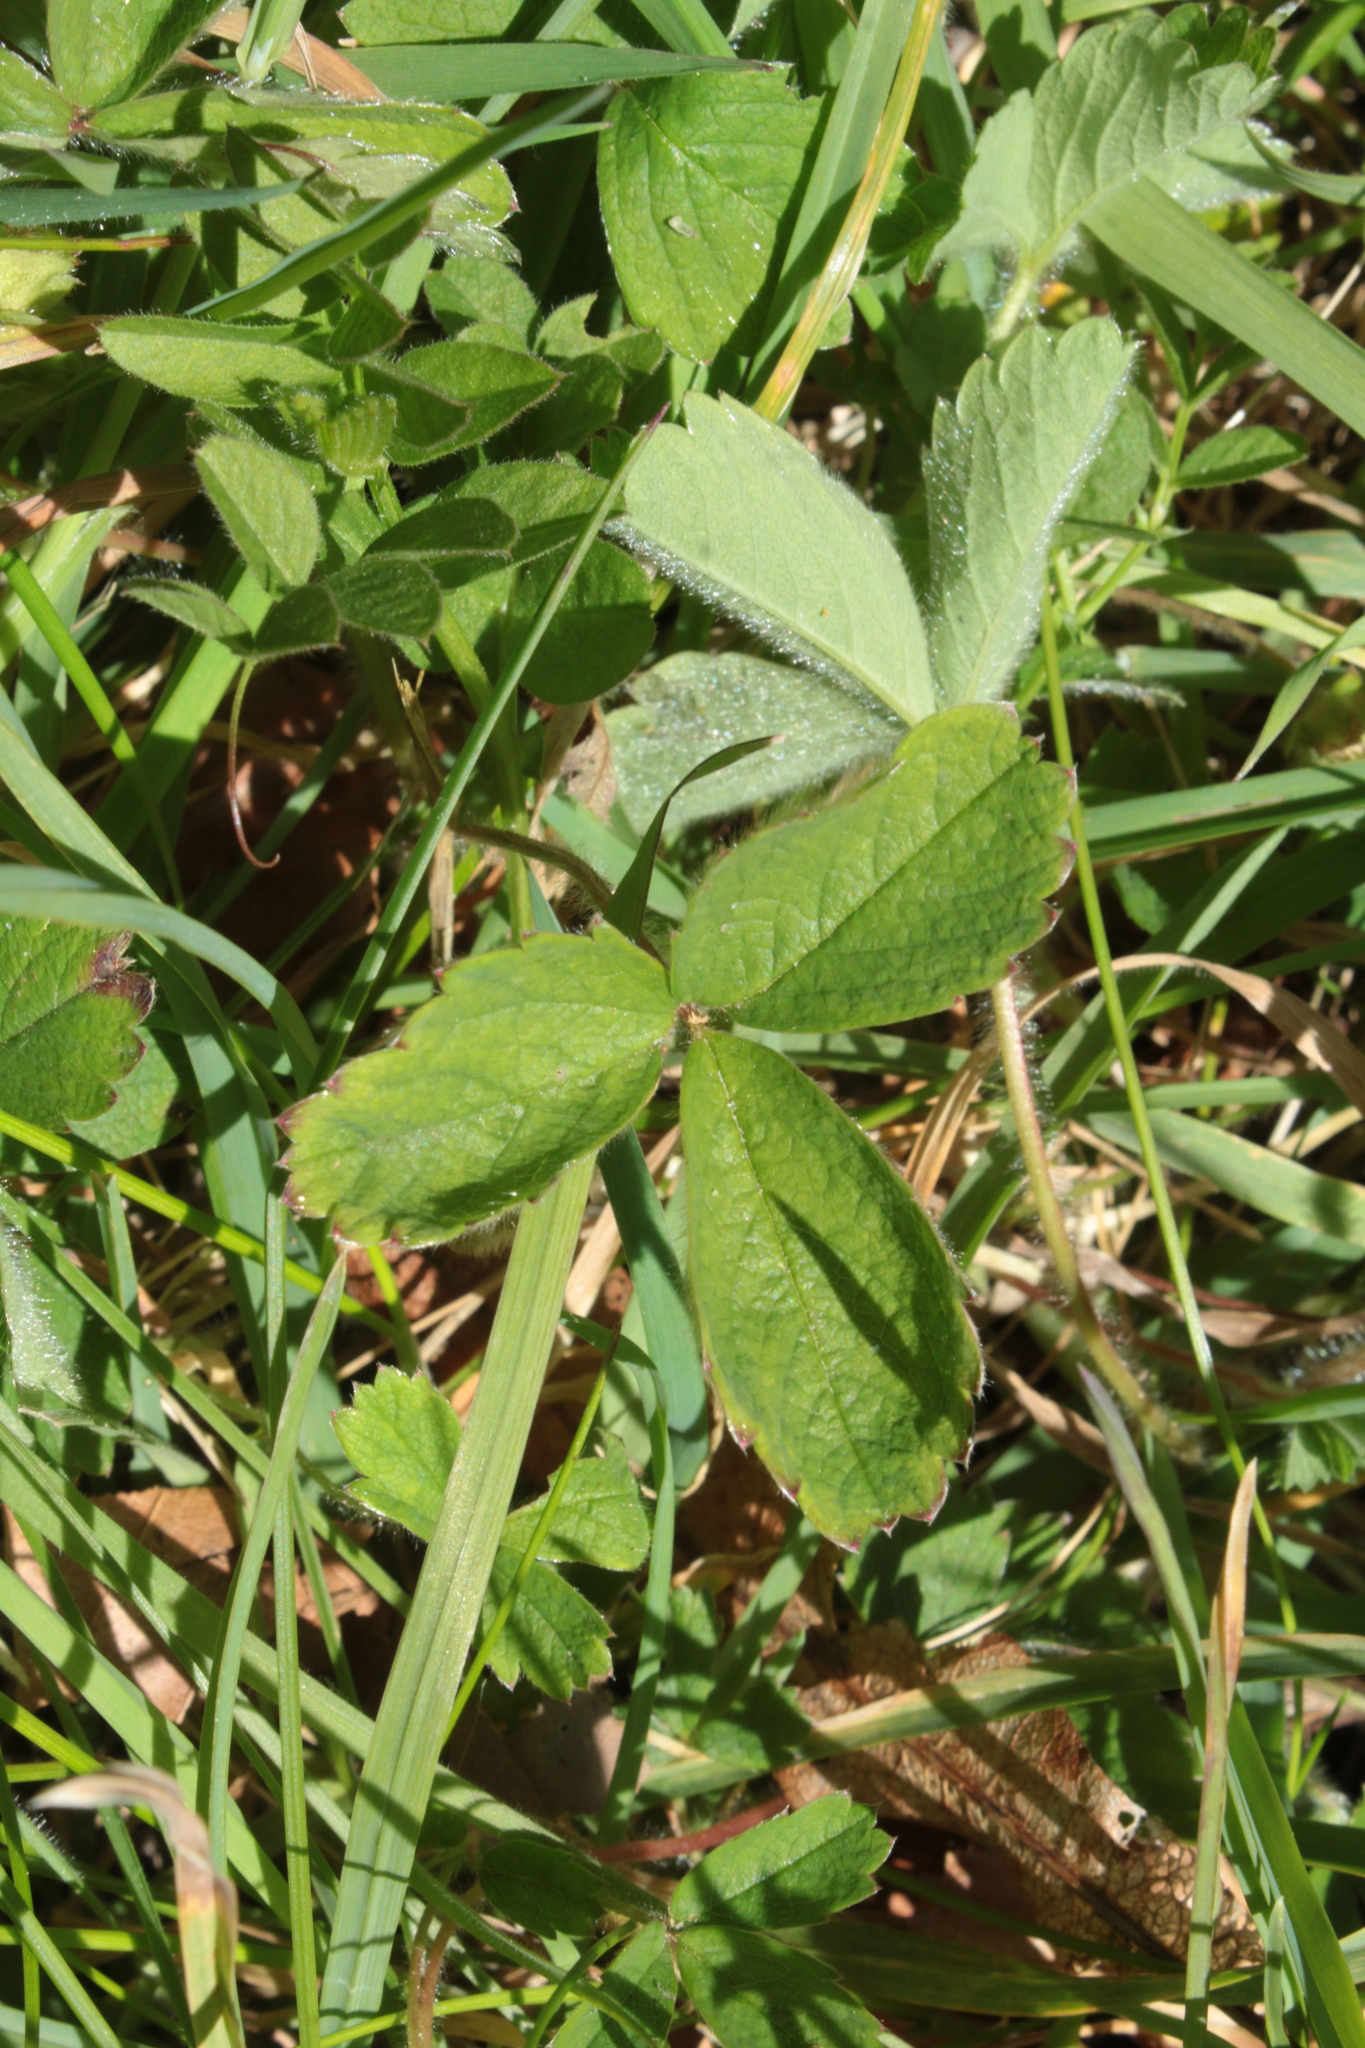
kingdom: Plantae
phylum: Tracheophyta
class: Magnoliopsida
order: Rosales
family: Rosaceae
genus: Potentilla
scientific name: Potentilla sterilis
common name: Barren strawberry
